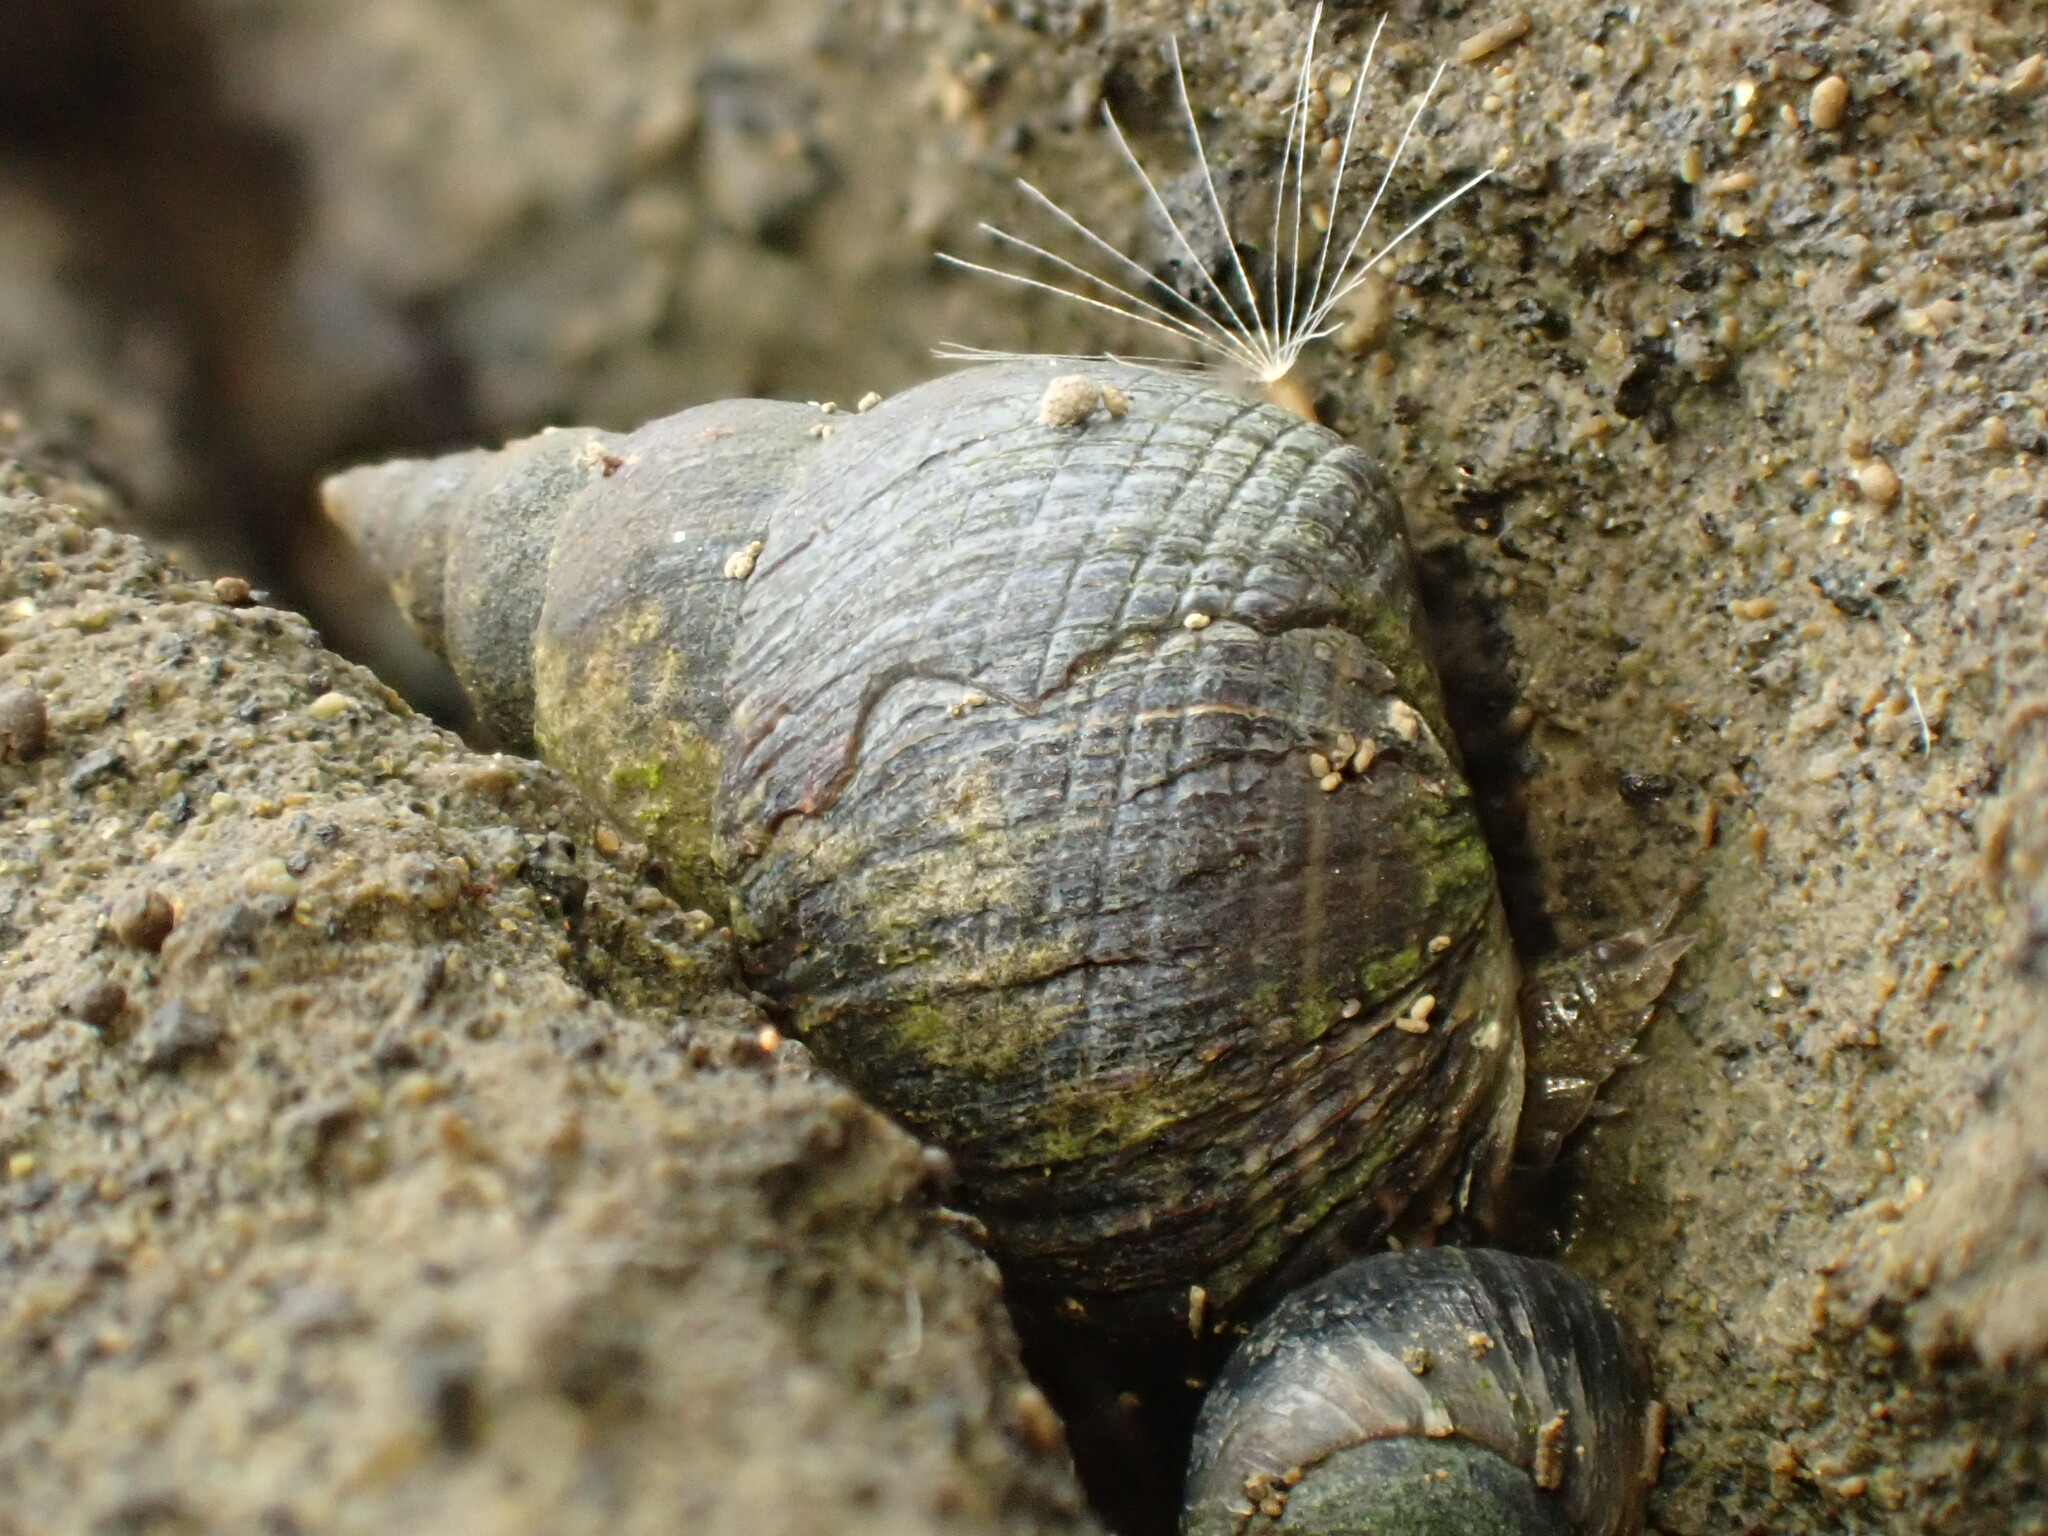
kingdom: Animalia
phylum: Mollusca
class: Gastropoda
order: Littorinimorpha
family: Littorinidae
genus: Austrolittorina
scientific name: Austrolittorina cincta
